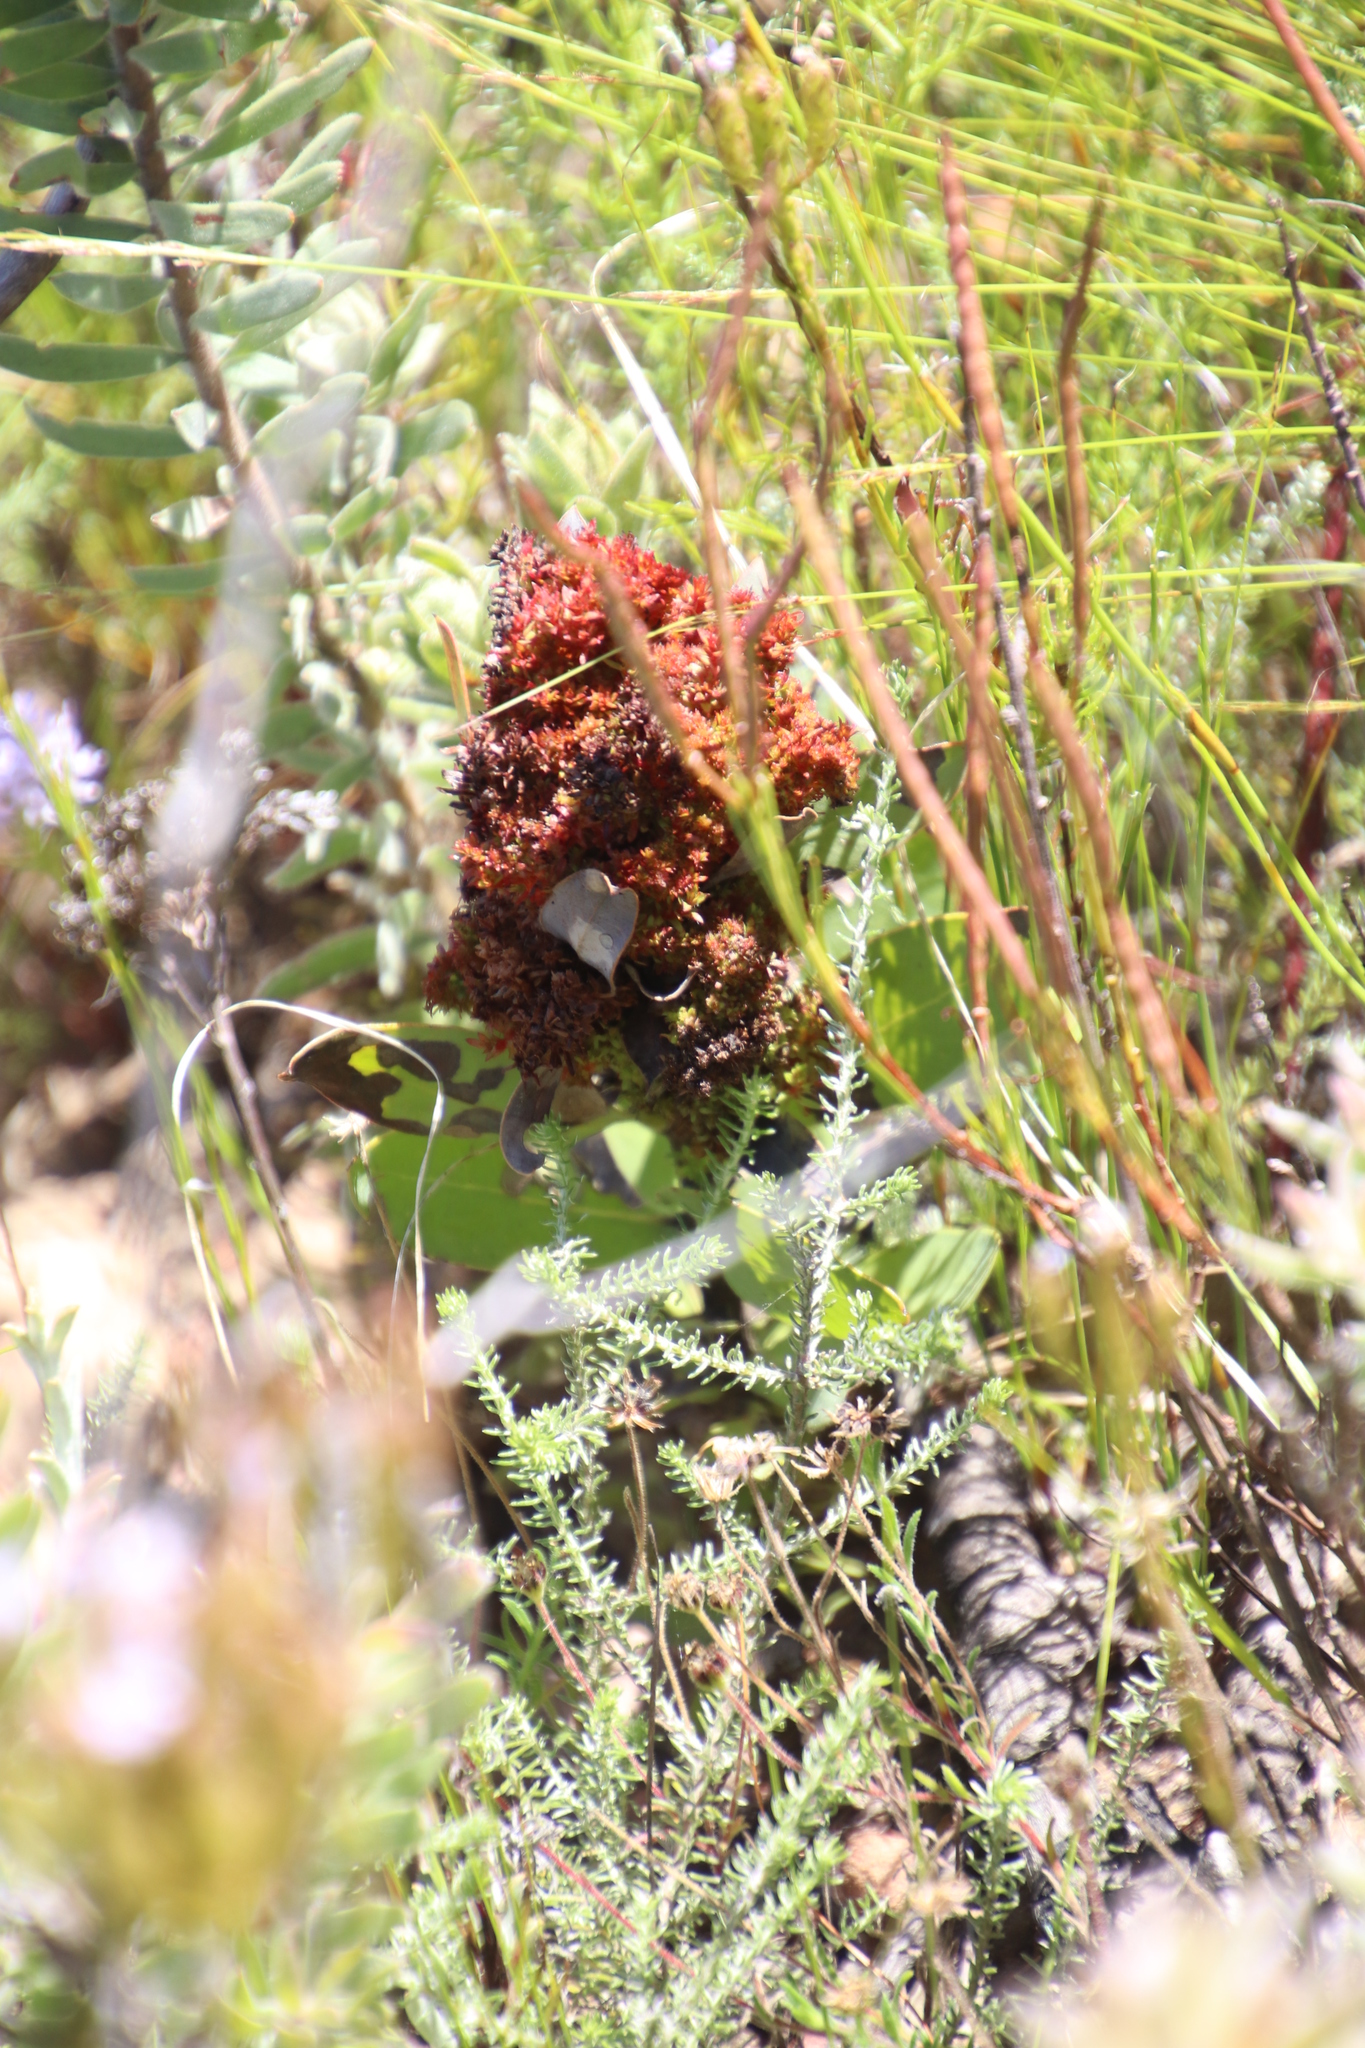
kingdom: Bacteria
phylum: Firmicutes
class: Bacilli
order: Acholeplasmatales
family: Acholeplasmataceae
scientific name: Acholeplasmataceae
